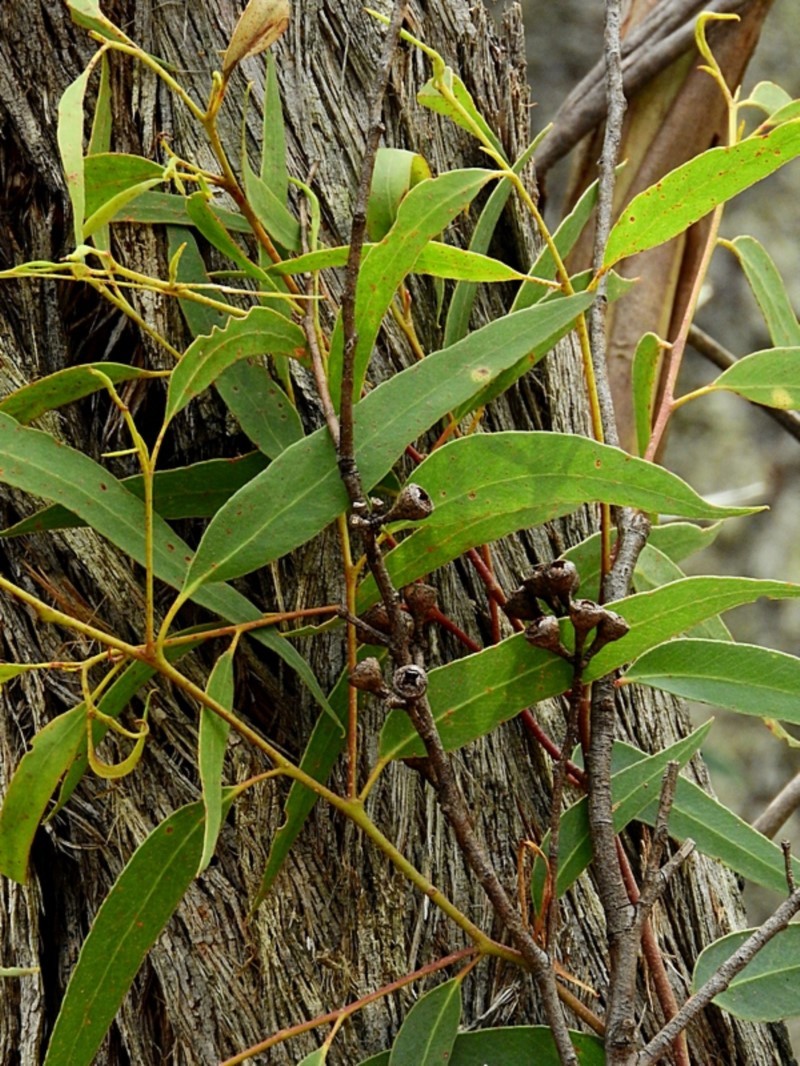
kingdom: Plantae
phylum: Tracheophyta
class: Magnoliopsida
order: Myrtales
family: Myrtaceae
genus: Eucalyptus
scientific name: Eucalyptus consideniana
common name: Prickly stringybark
